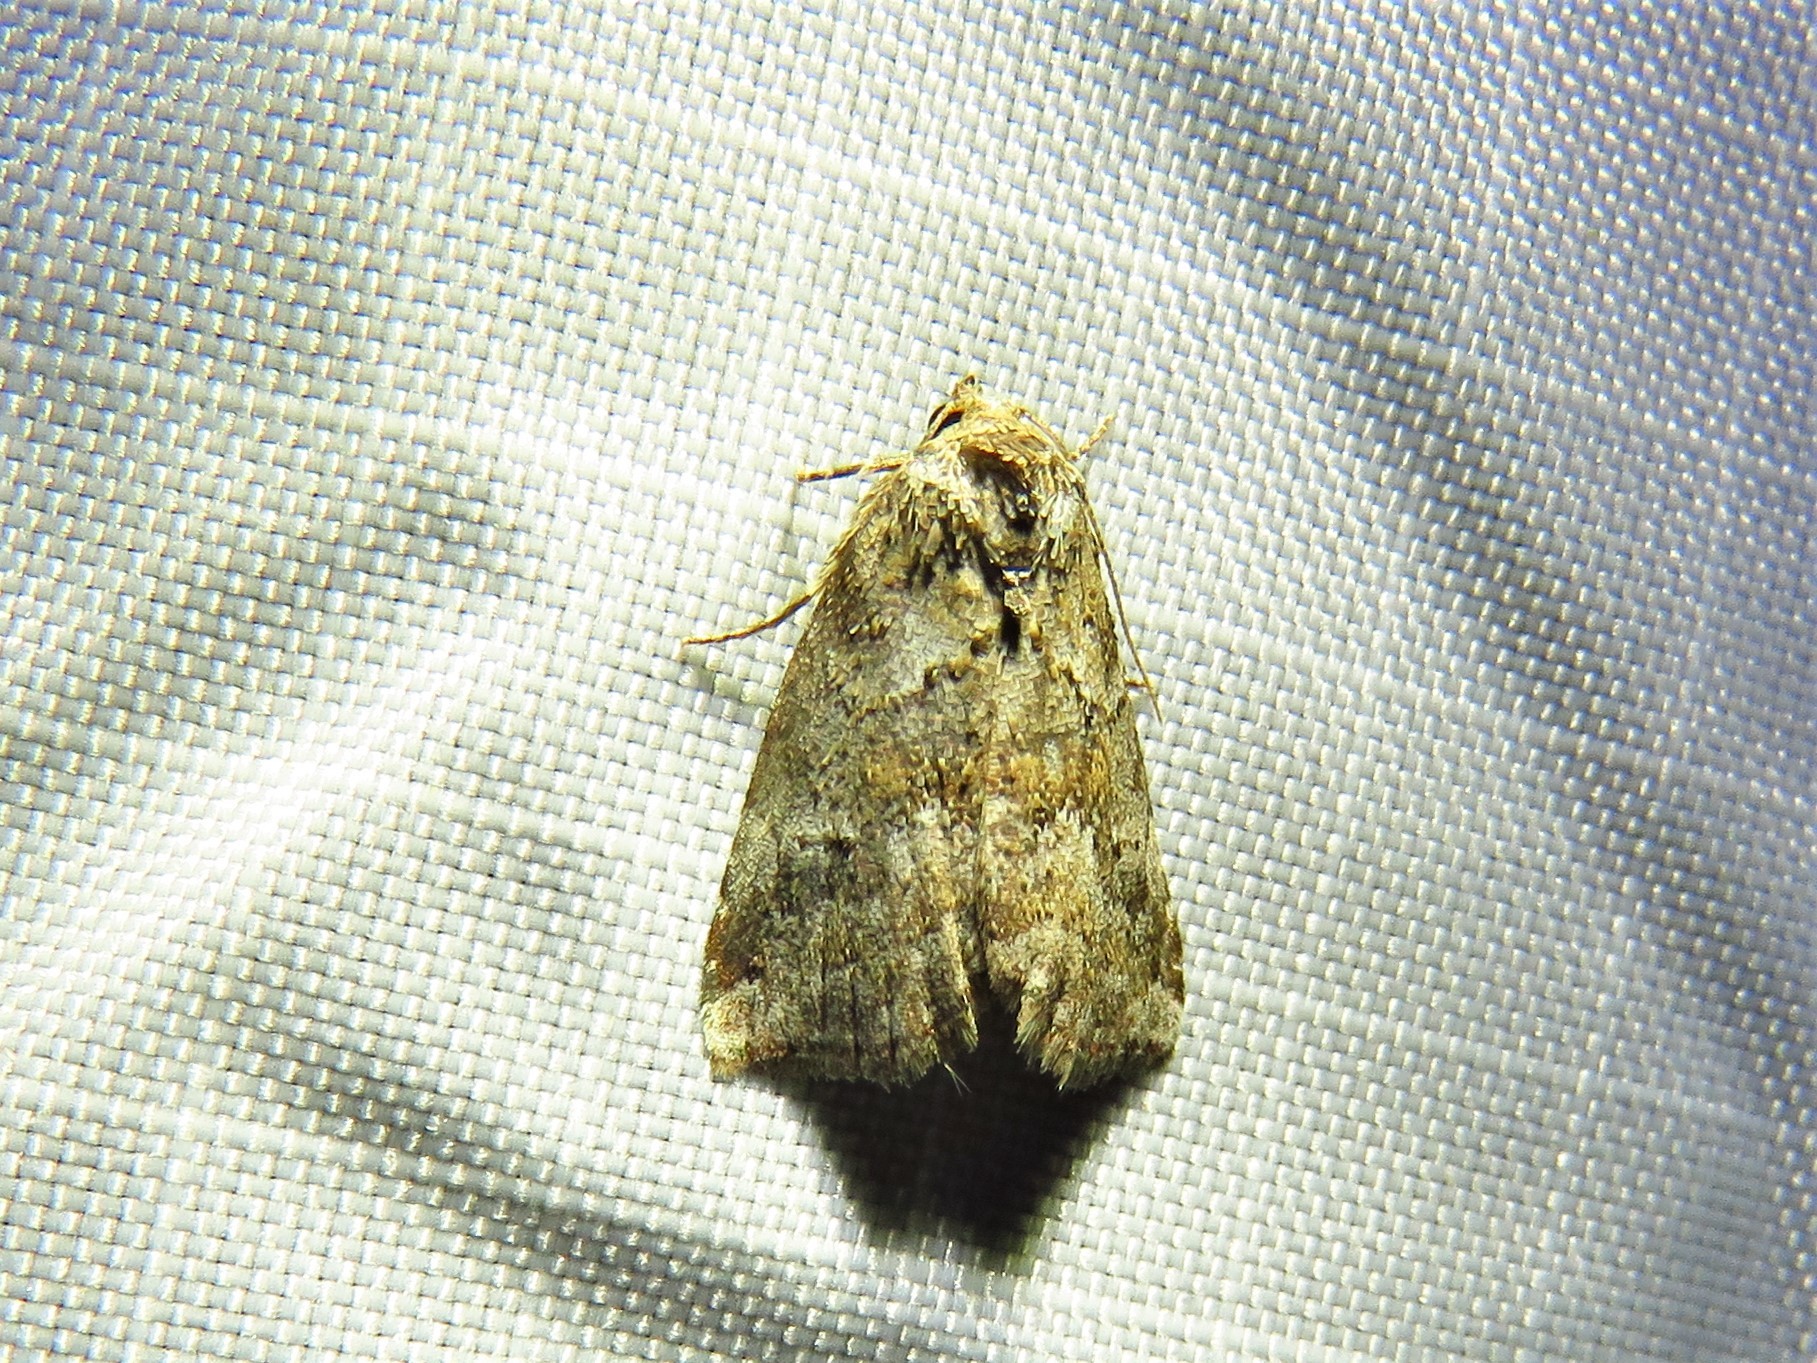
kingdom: Animalia
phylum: Arthropoda
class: Insecta
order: Lepidoptera
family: Erebidae
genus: Hyperstrotia
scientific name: Hyperstrotia nana
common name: White-lined graylet
